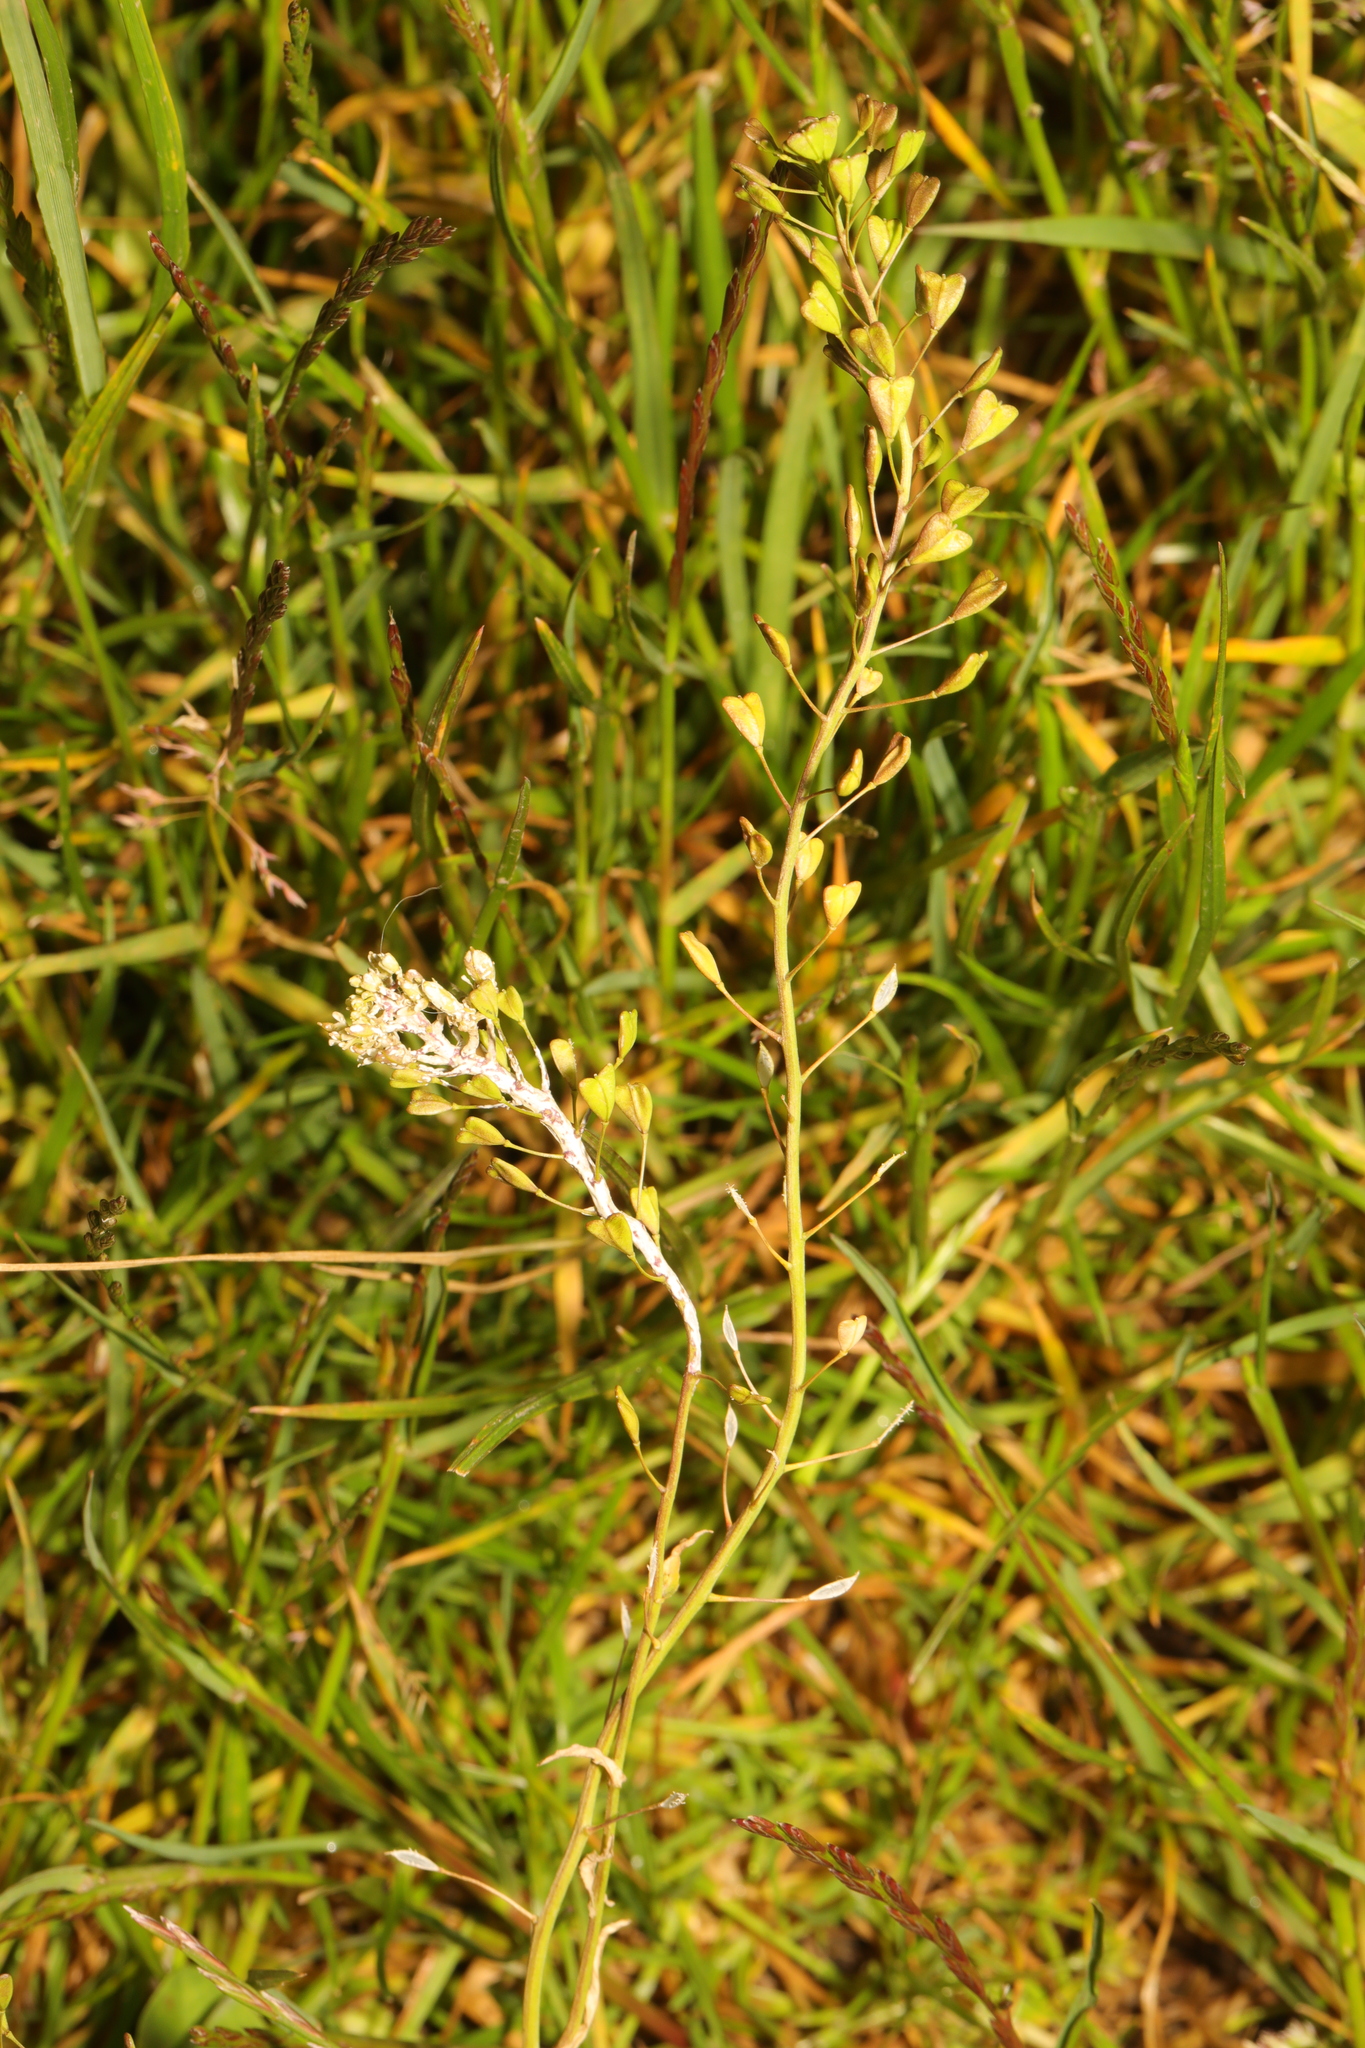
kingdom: Plantae
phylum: Tracheophyta
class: Magnoliopsida
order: Brassicales
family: Brassicaceae
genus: Capsella
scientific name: Capsella bursa-pastoris
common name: Shepherd's purse
